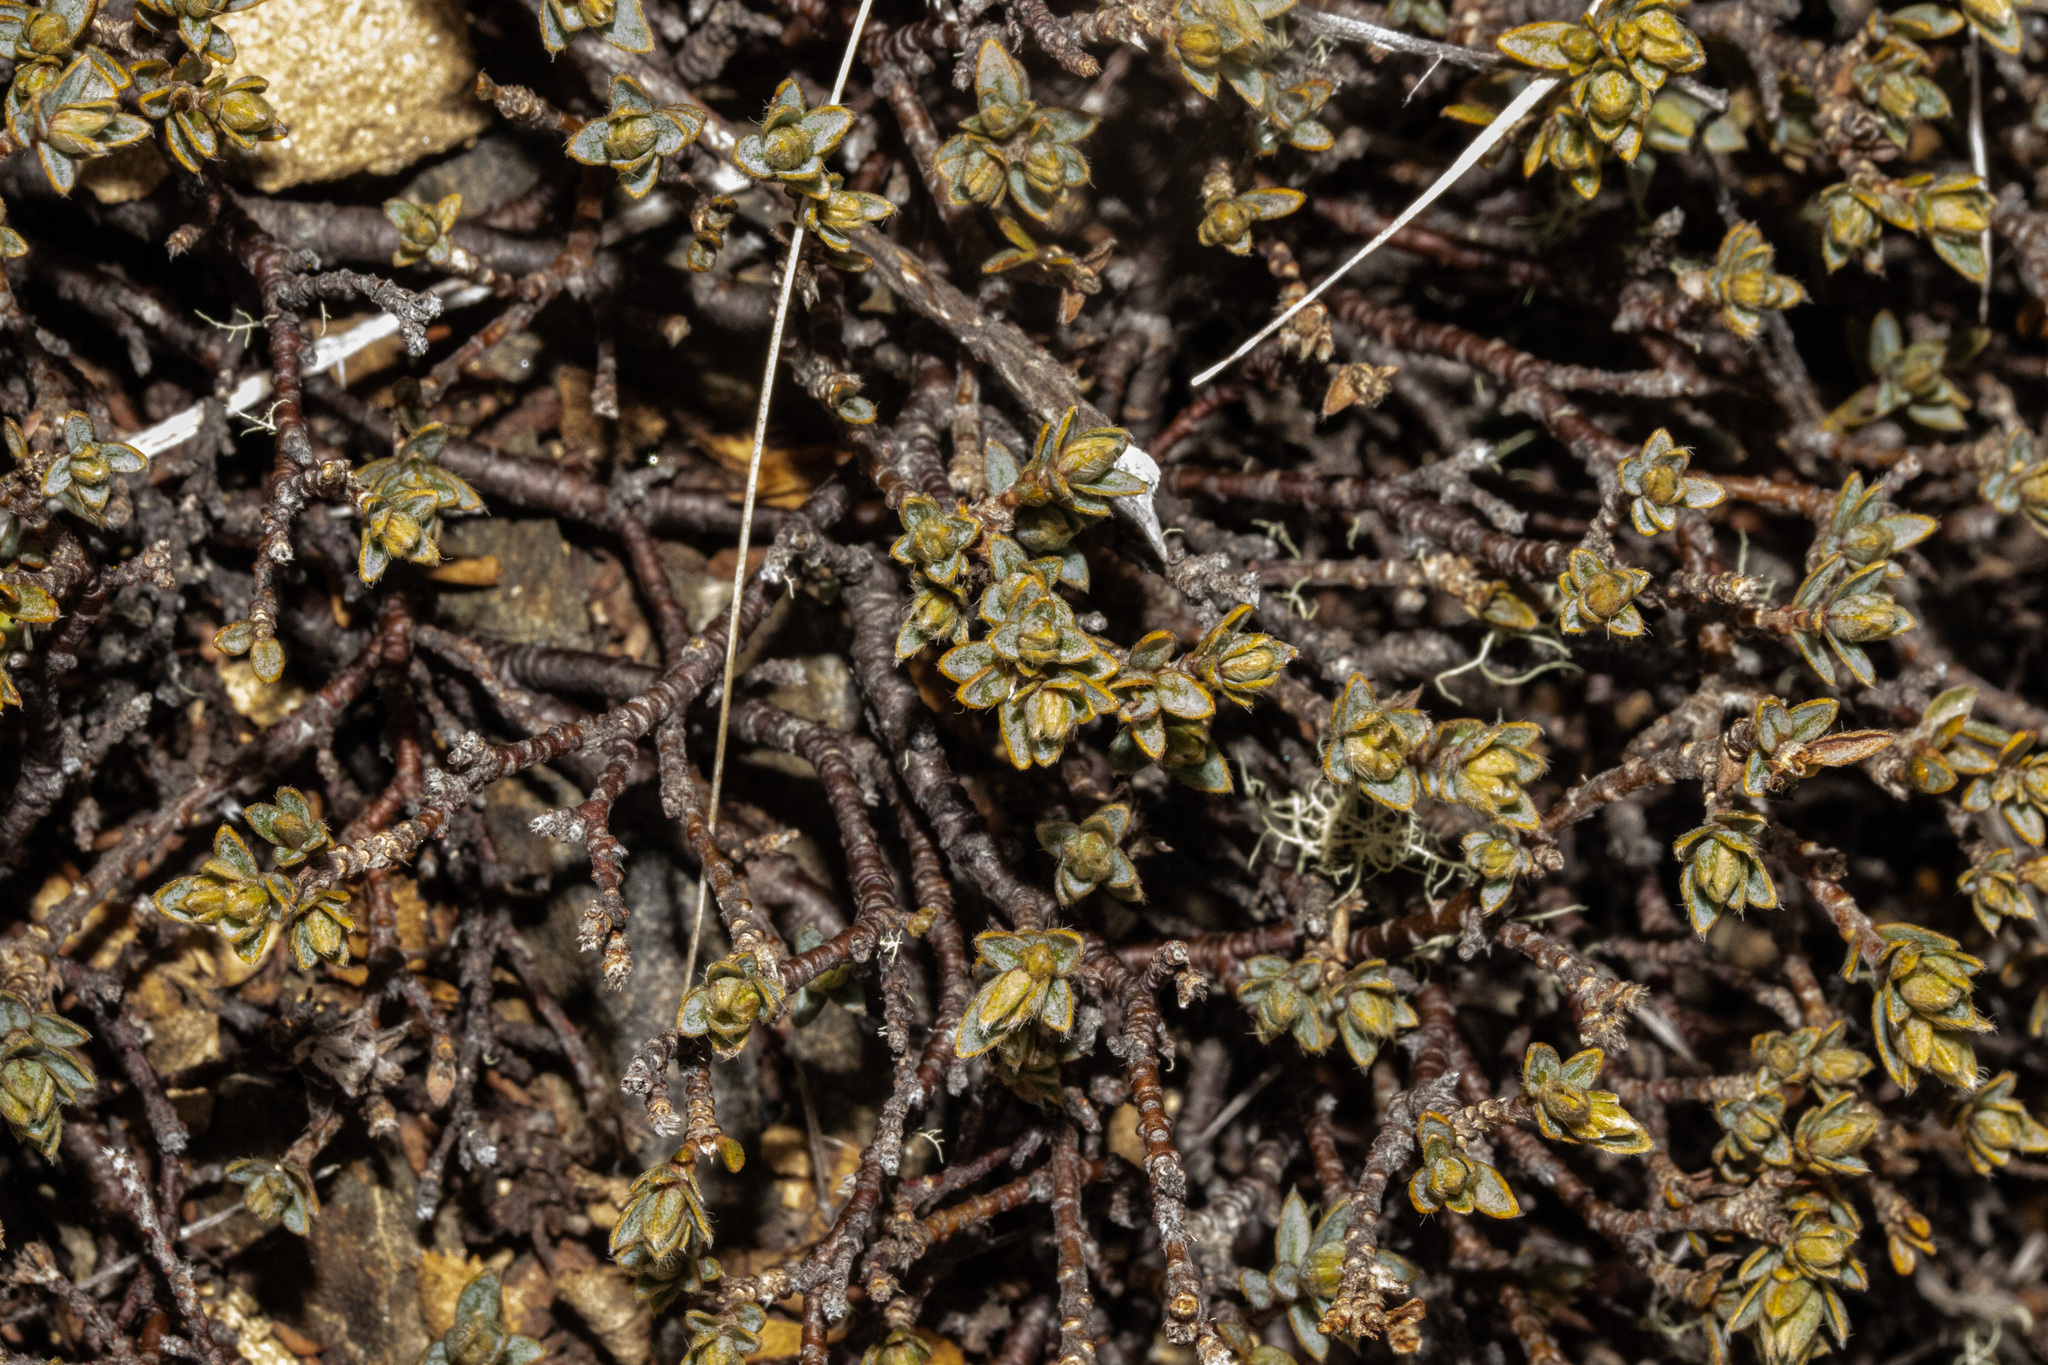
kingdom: Plantae
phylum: Tracheophyta
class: Magnoliopsida
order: Malvales
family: Thymelaeaceae
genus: Pimelea
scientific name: Pimelea oreophila
